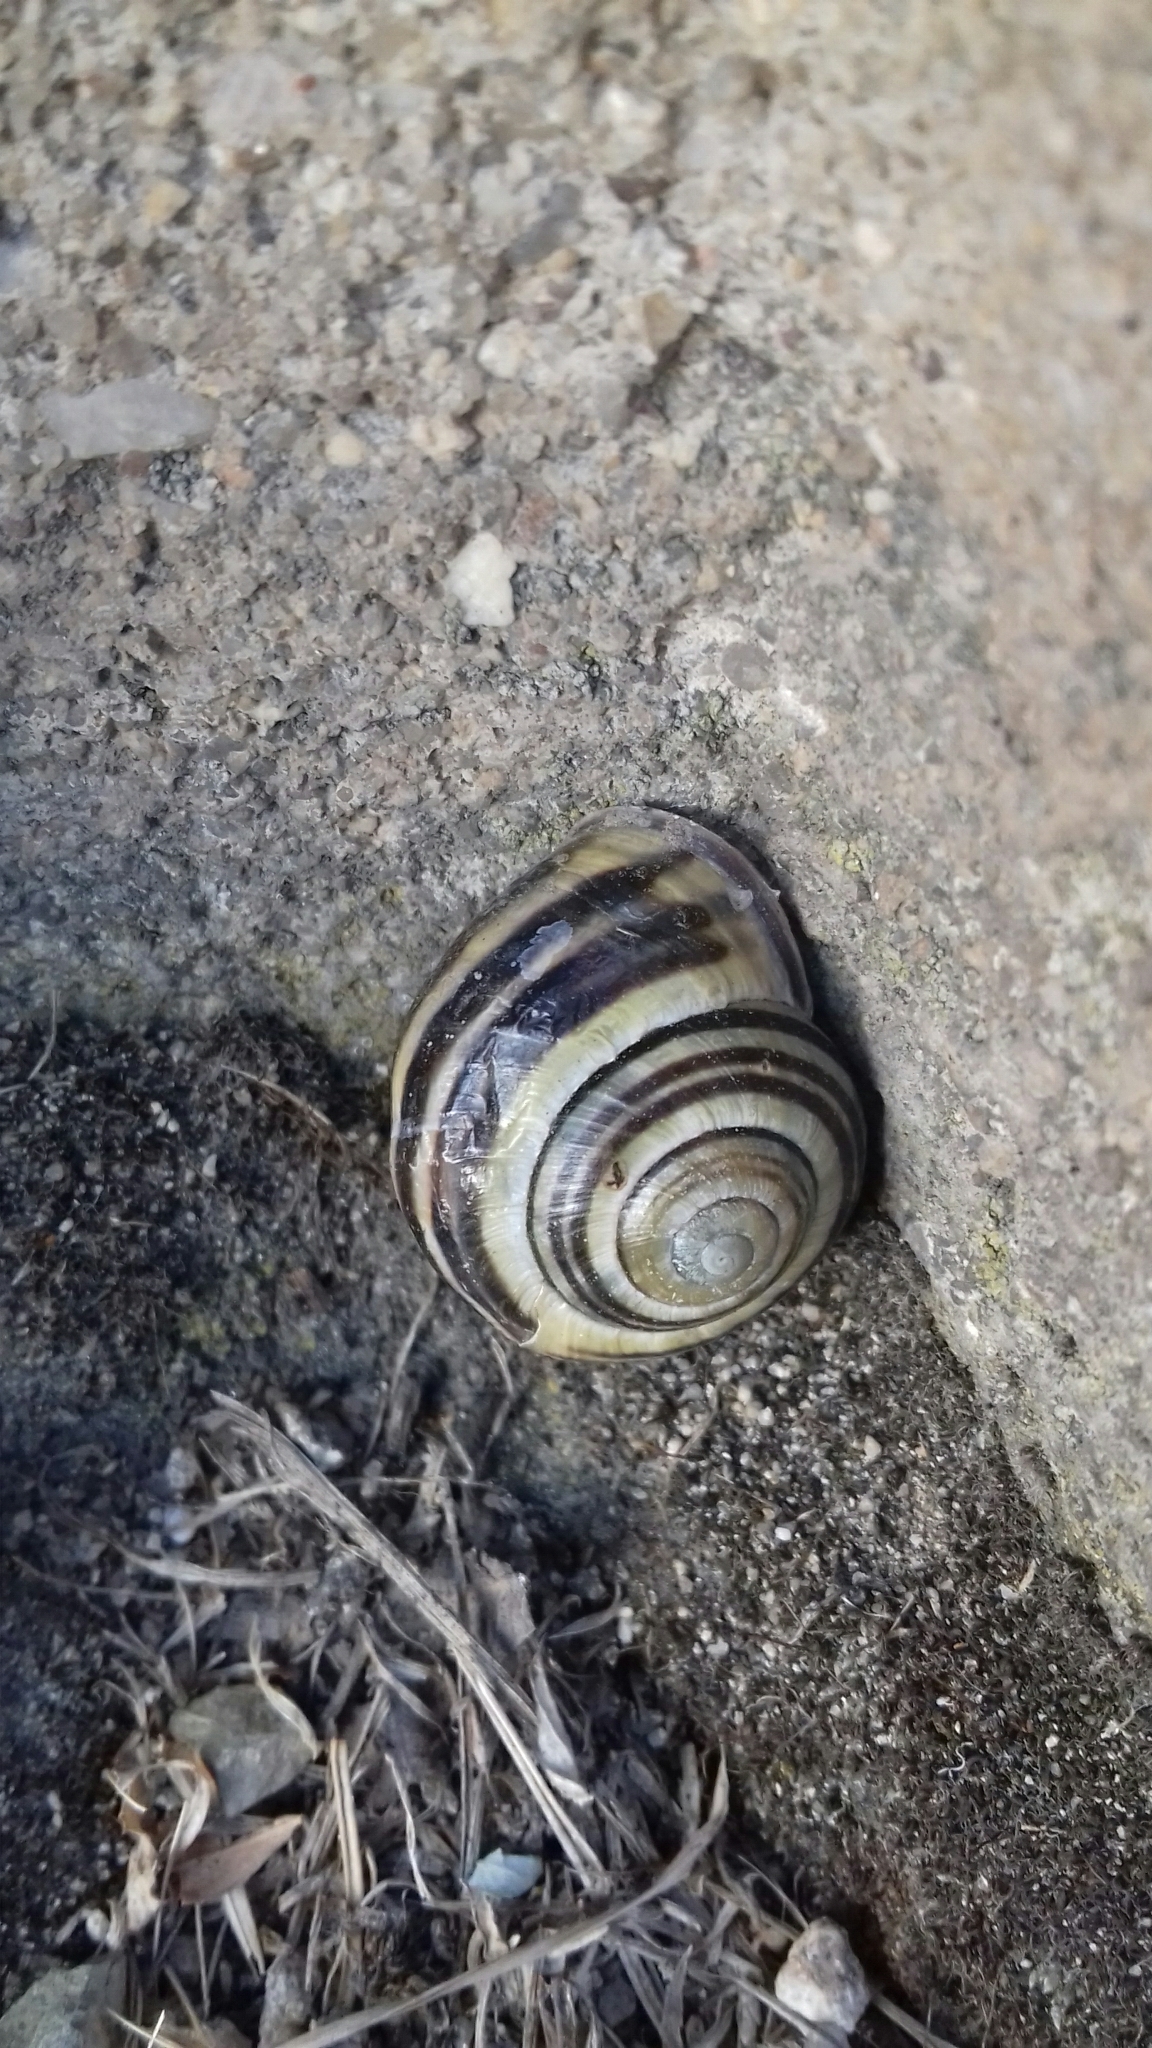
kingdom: Animalia
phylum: Mollusca
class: Gastropoda
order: Stylommatophora
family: Helicidae
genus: Cepaea
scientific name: Cepaea nemoralis
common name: Grovesnail
